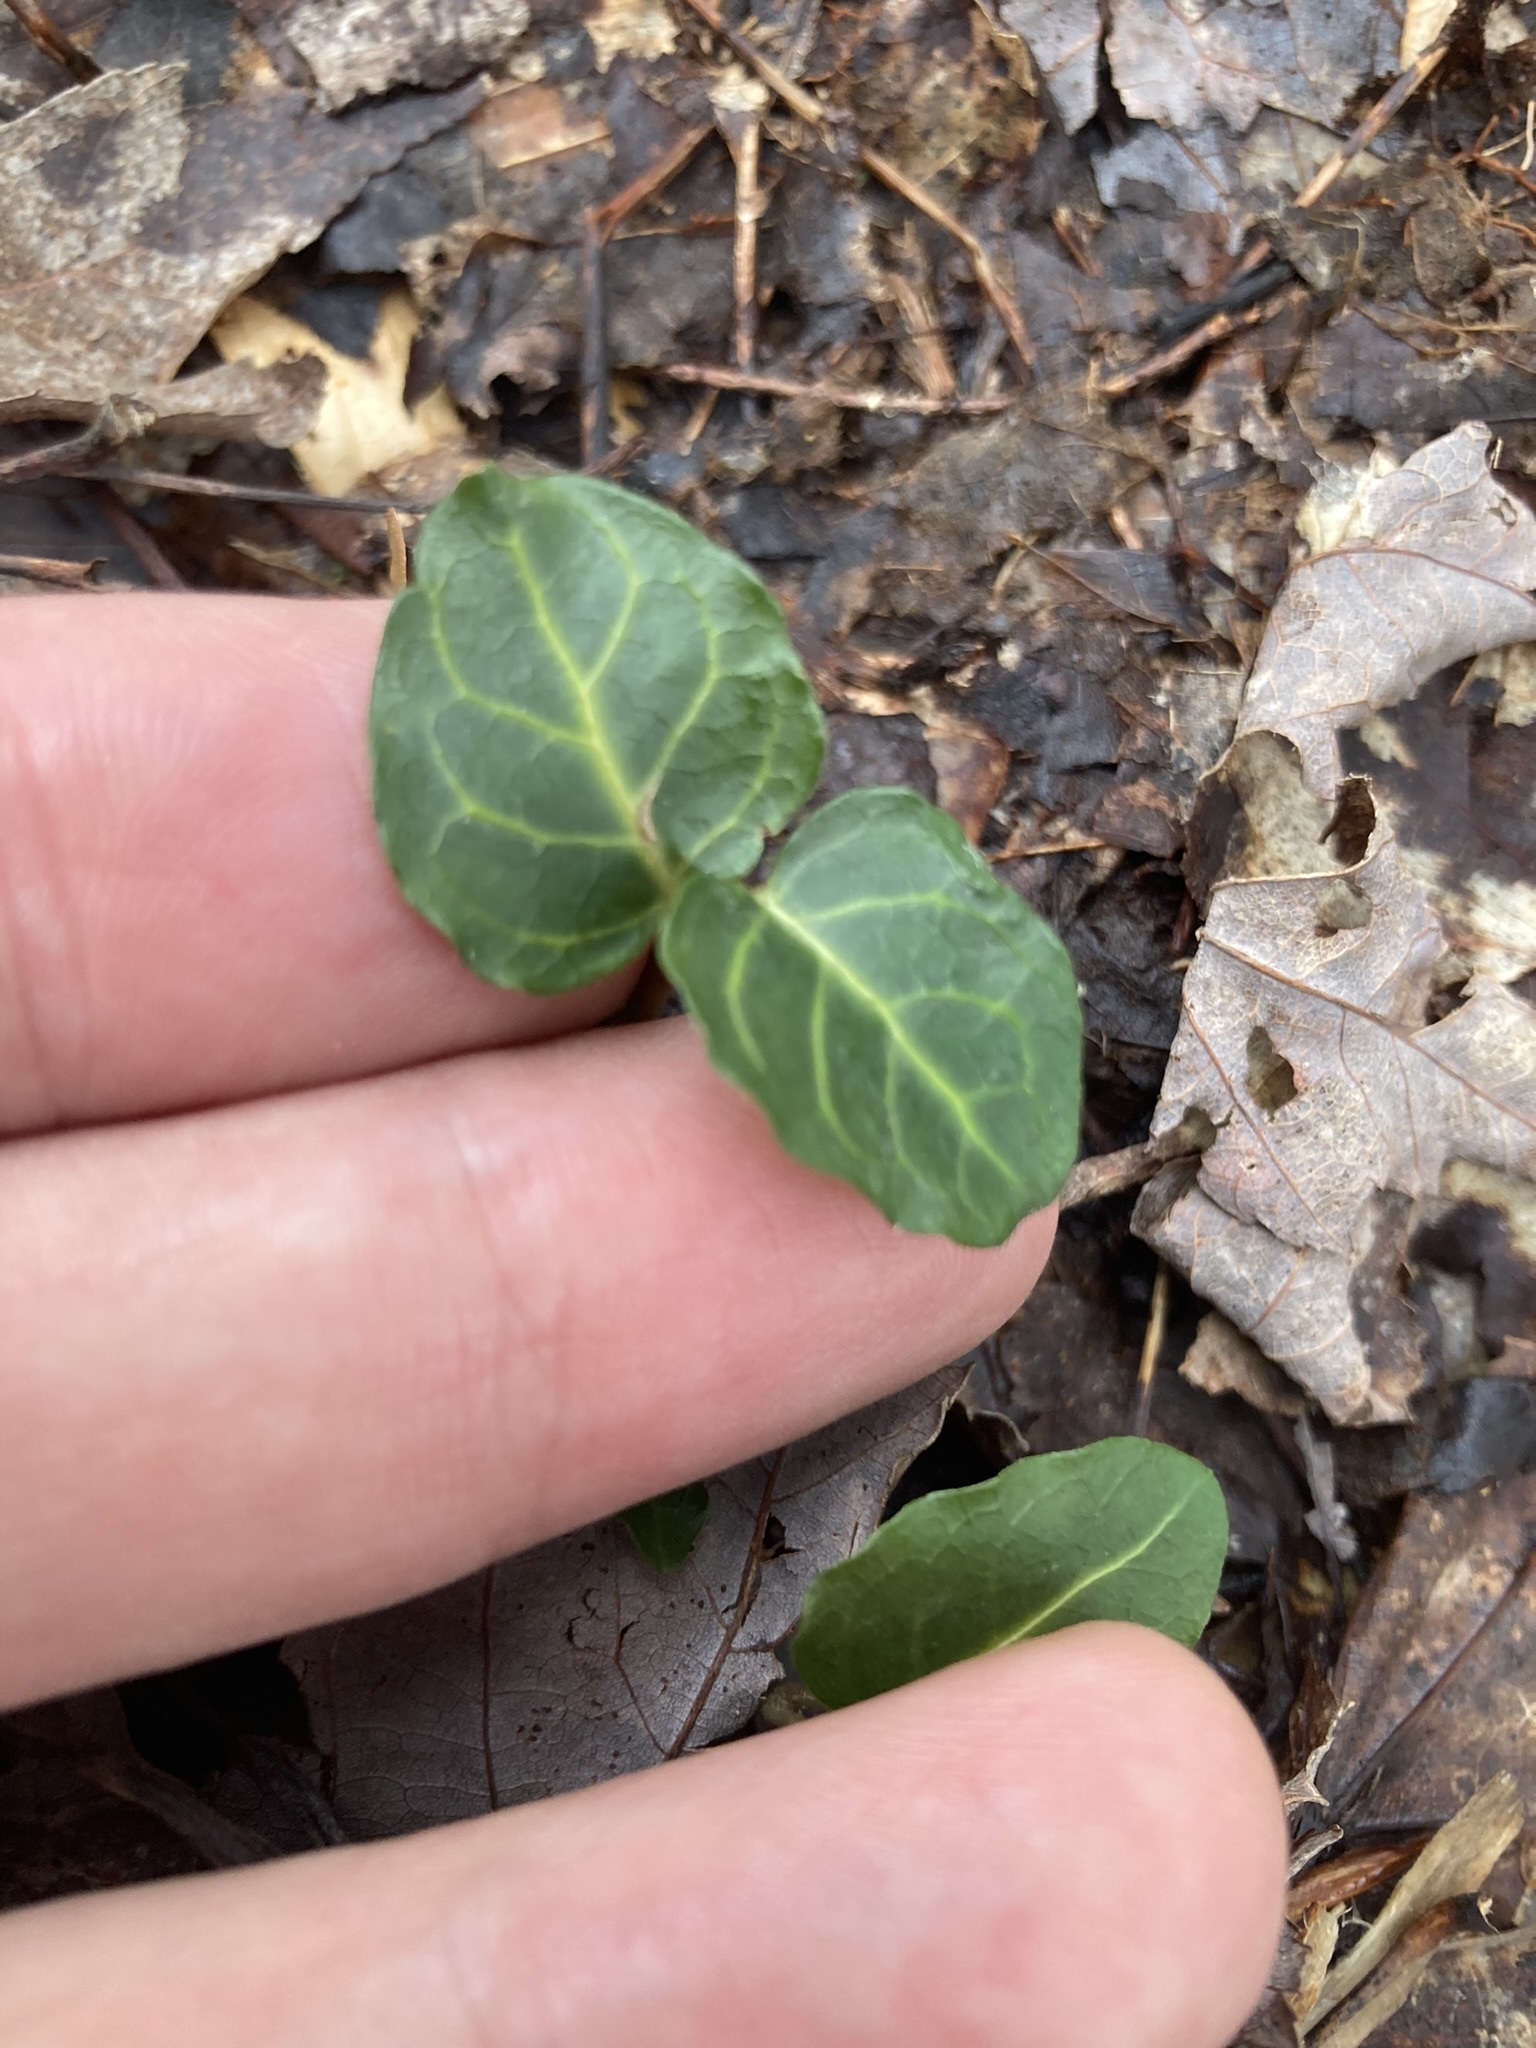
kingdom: Plantae
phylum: Tracheophyta
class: Magnoliopsida
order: Gentianales
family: Rubiaceae
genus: Mitchella
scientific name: Mitchella repens
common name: Partridge-berry
